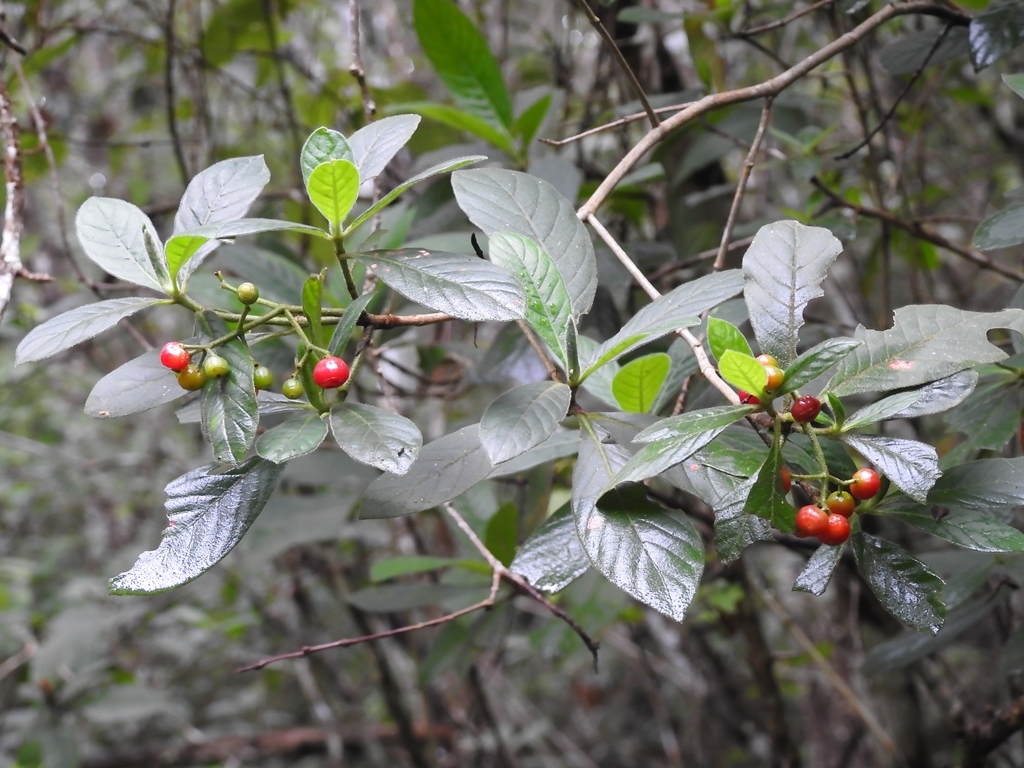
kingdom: Plantae
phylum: Tracheophyta
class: Magnoliopsida
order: Gentianales
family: Rubiaceae
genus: Psychotria
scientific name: Psychotria erythrocarpa
